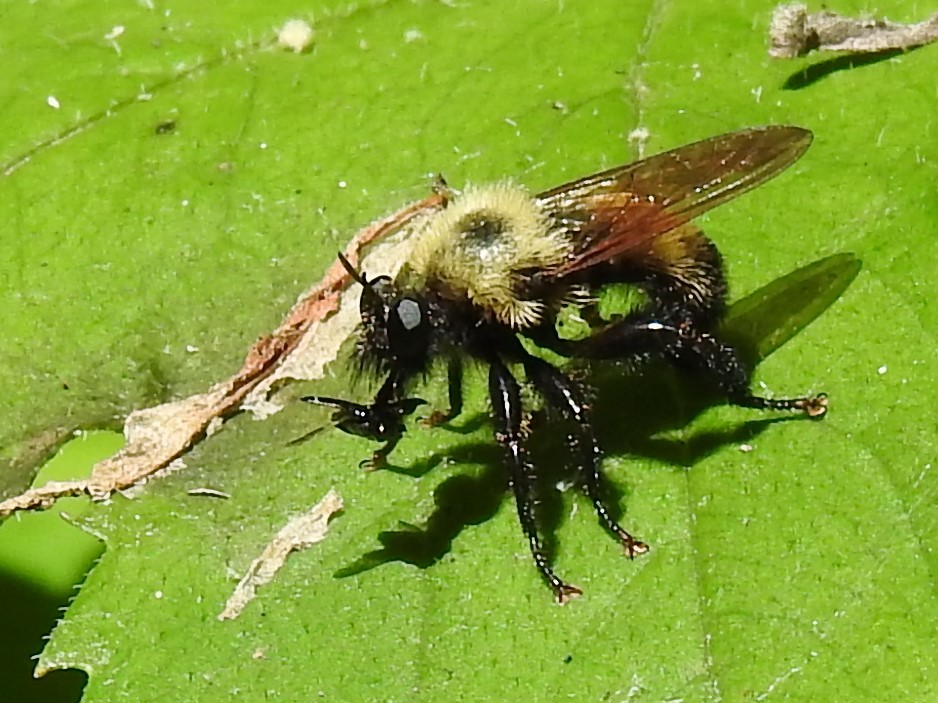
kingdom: Animalia
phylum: Arthropoda
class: Insecta
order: Diptera
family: Asilidae
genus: Laphria
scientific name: Laphria thoracica
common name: Bumble bee mimic robber fly
